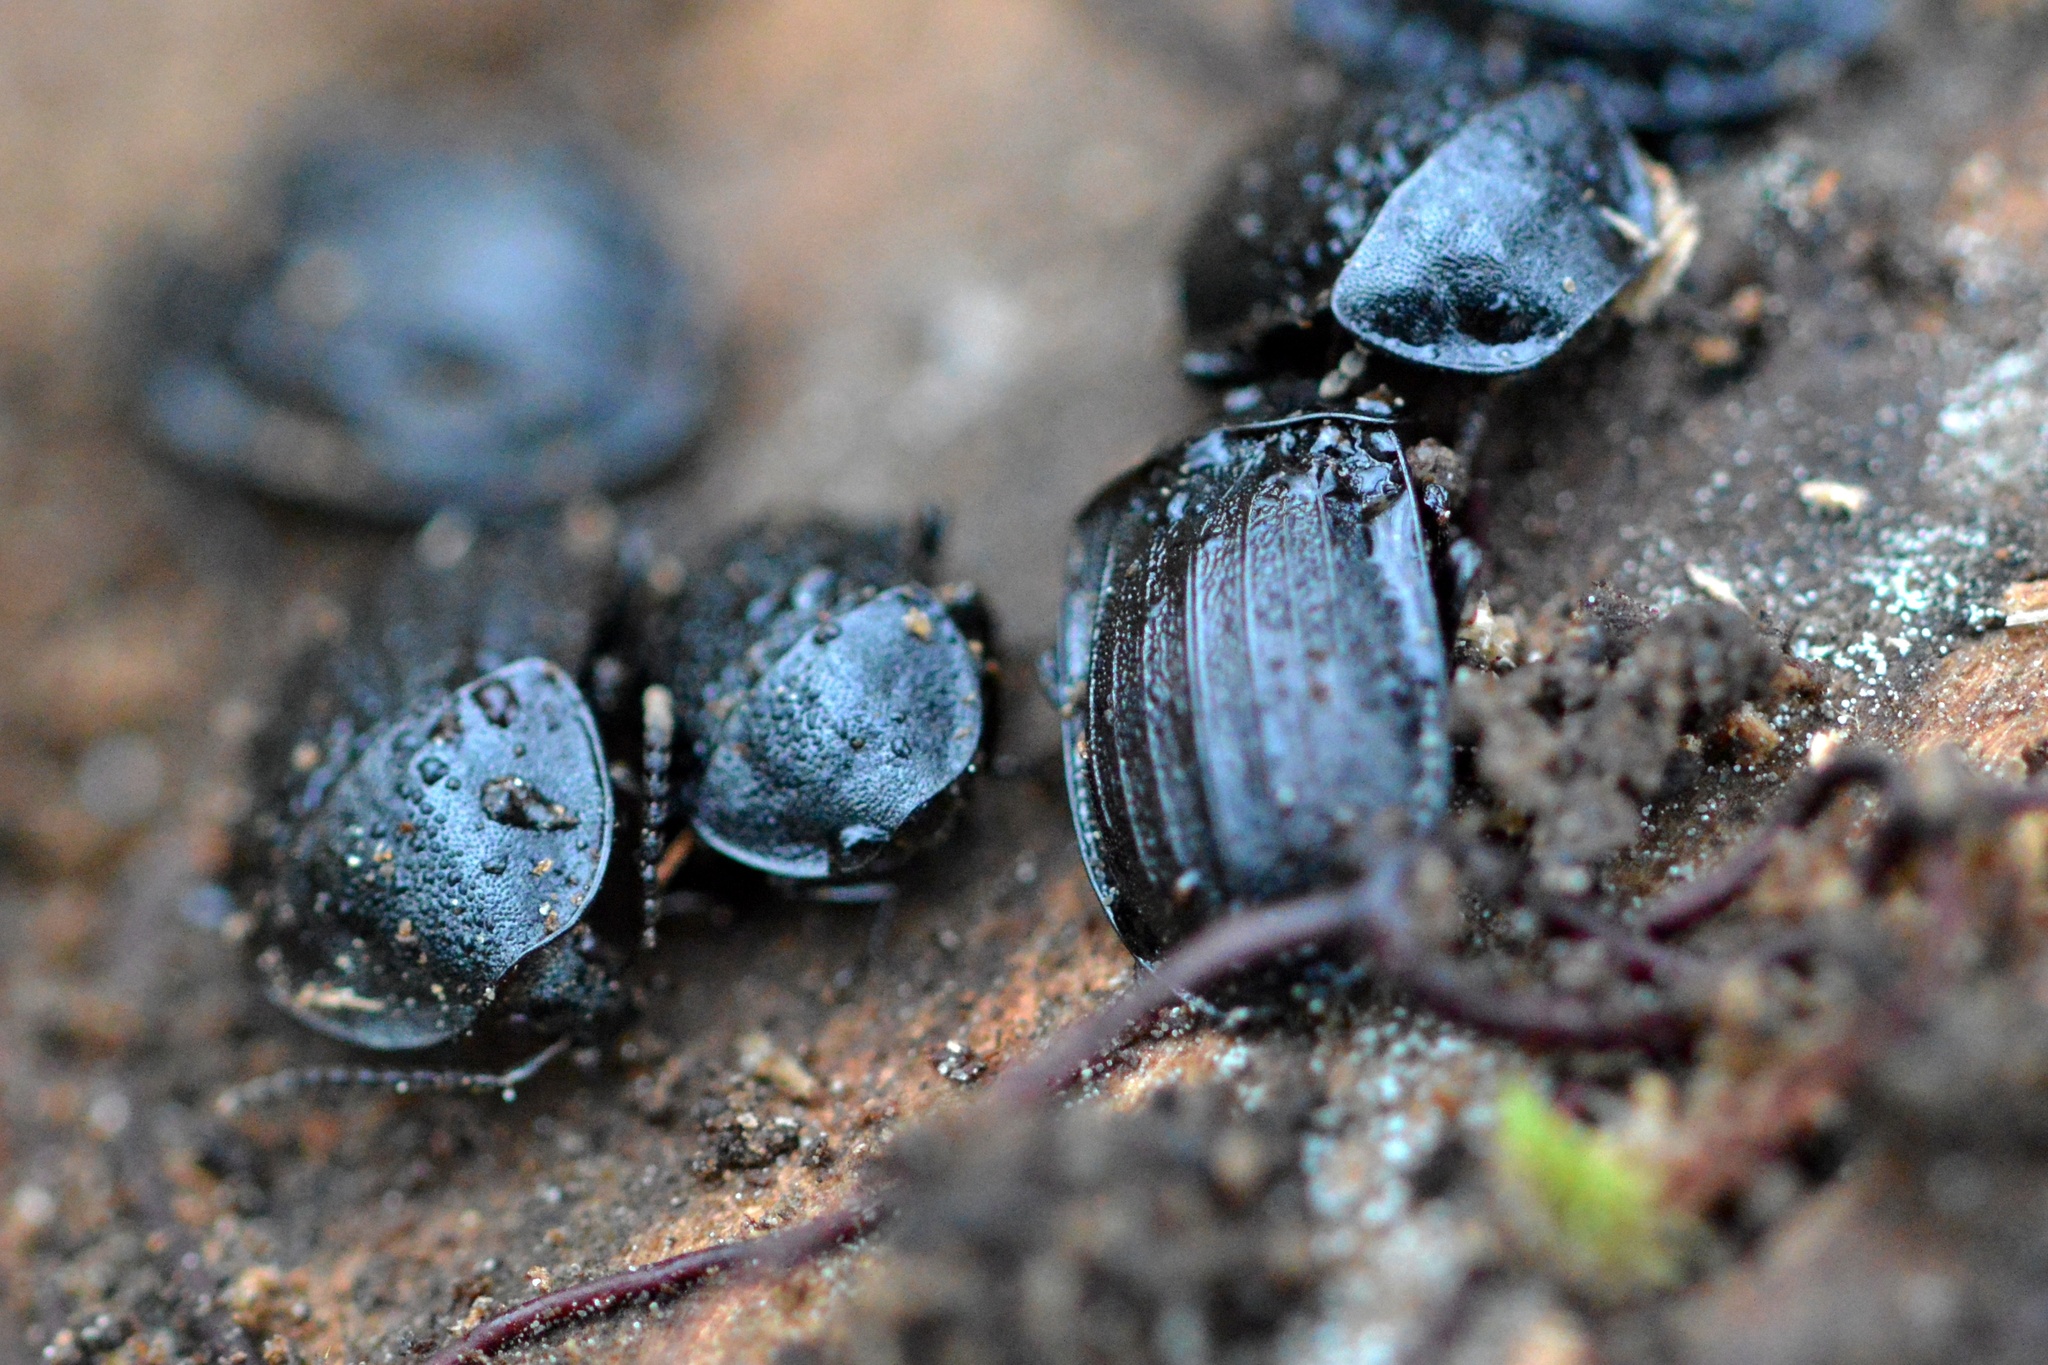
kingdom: Animalia
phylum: Arthropoda
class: Insecta
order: Coleoptera
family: Staphylinidae
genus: Silpha
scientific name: Silpha atrata
